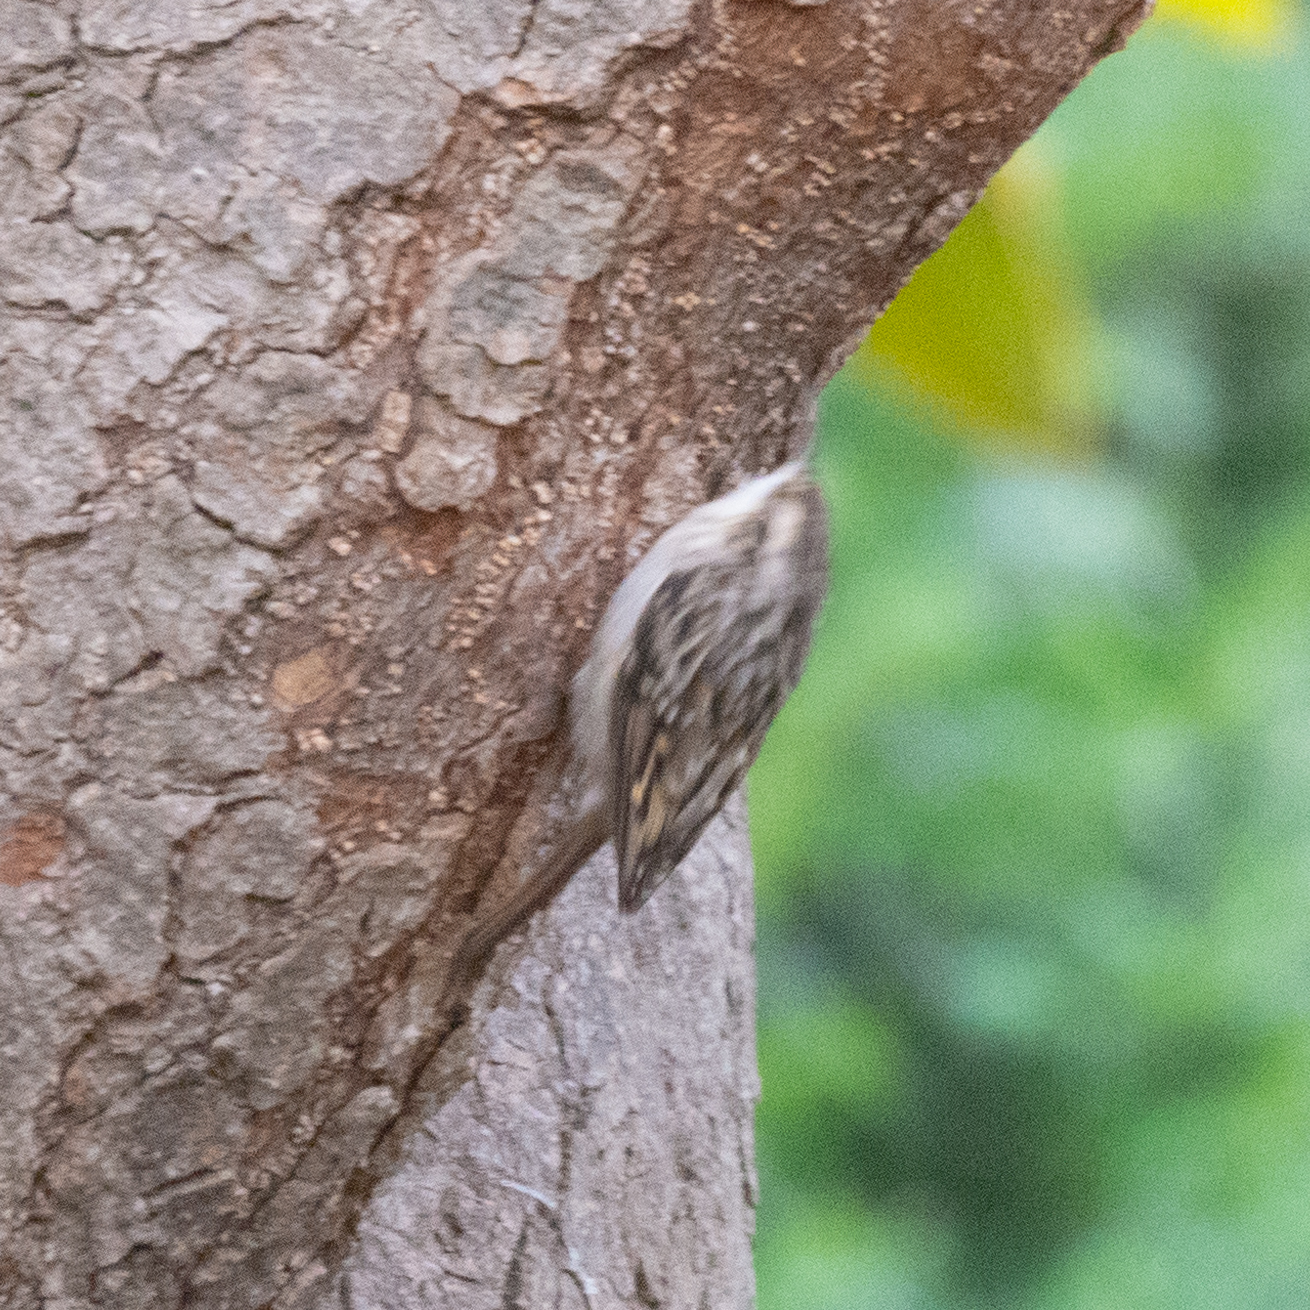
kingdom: Animalia
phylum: Chordata
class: Aves
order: Passeriformes
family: Certhiidae
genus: Certhia
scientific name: Certhia brachydactyla
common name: Short-toed treecreeper
